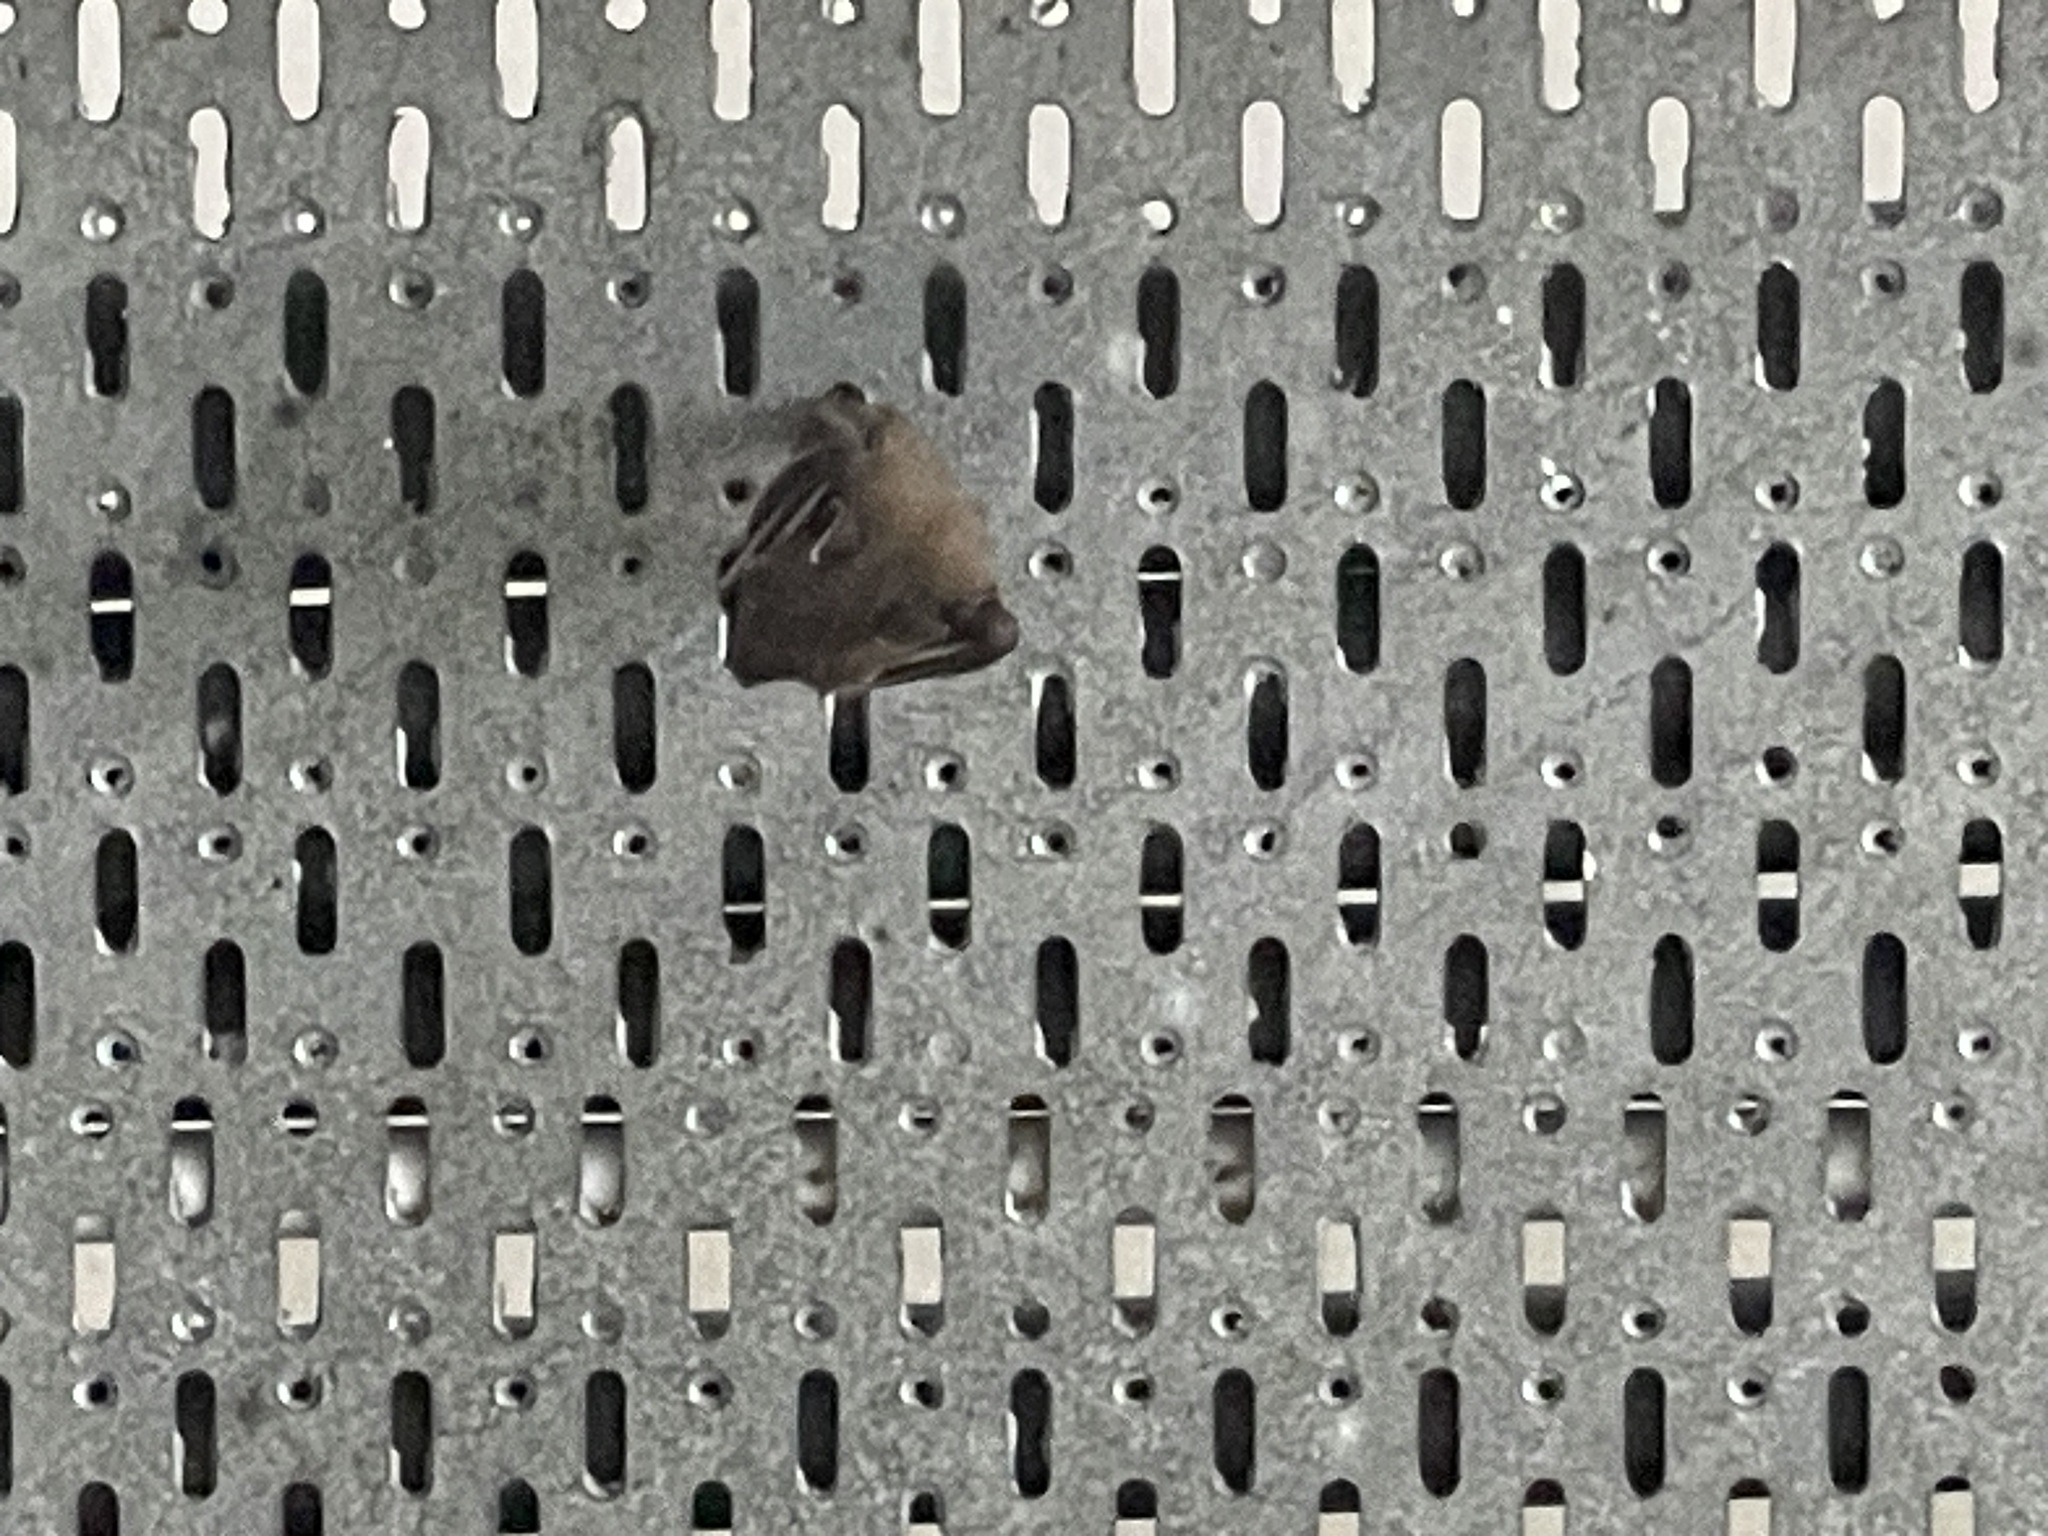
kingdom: Animalia
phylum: Chordata
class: Mammalia
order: Chiroptera
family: Pteropodidae
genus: Cynopterus
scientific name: Cynopterus sphinx
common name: Greater short-nosed fruit bat
